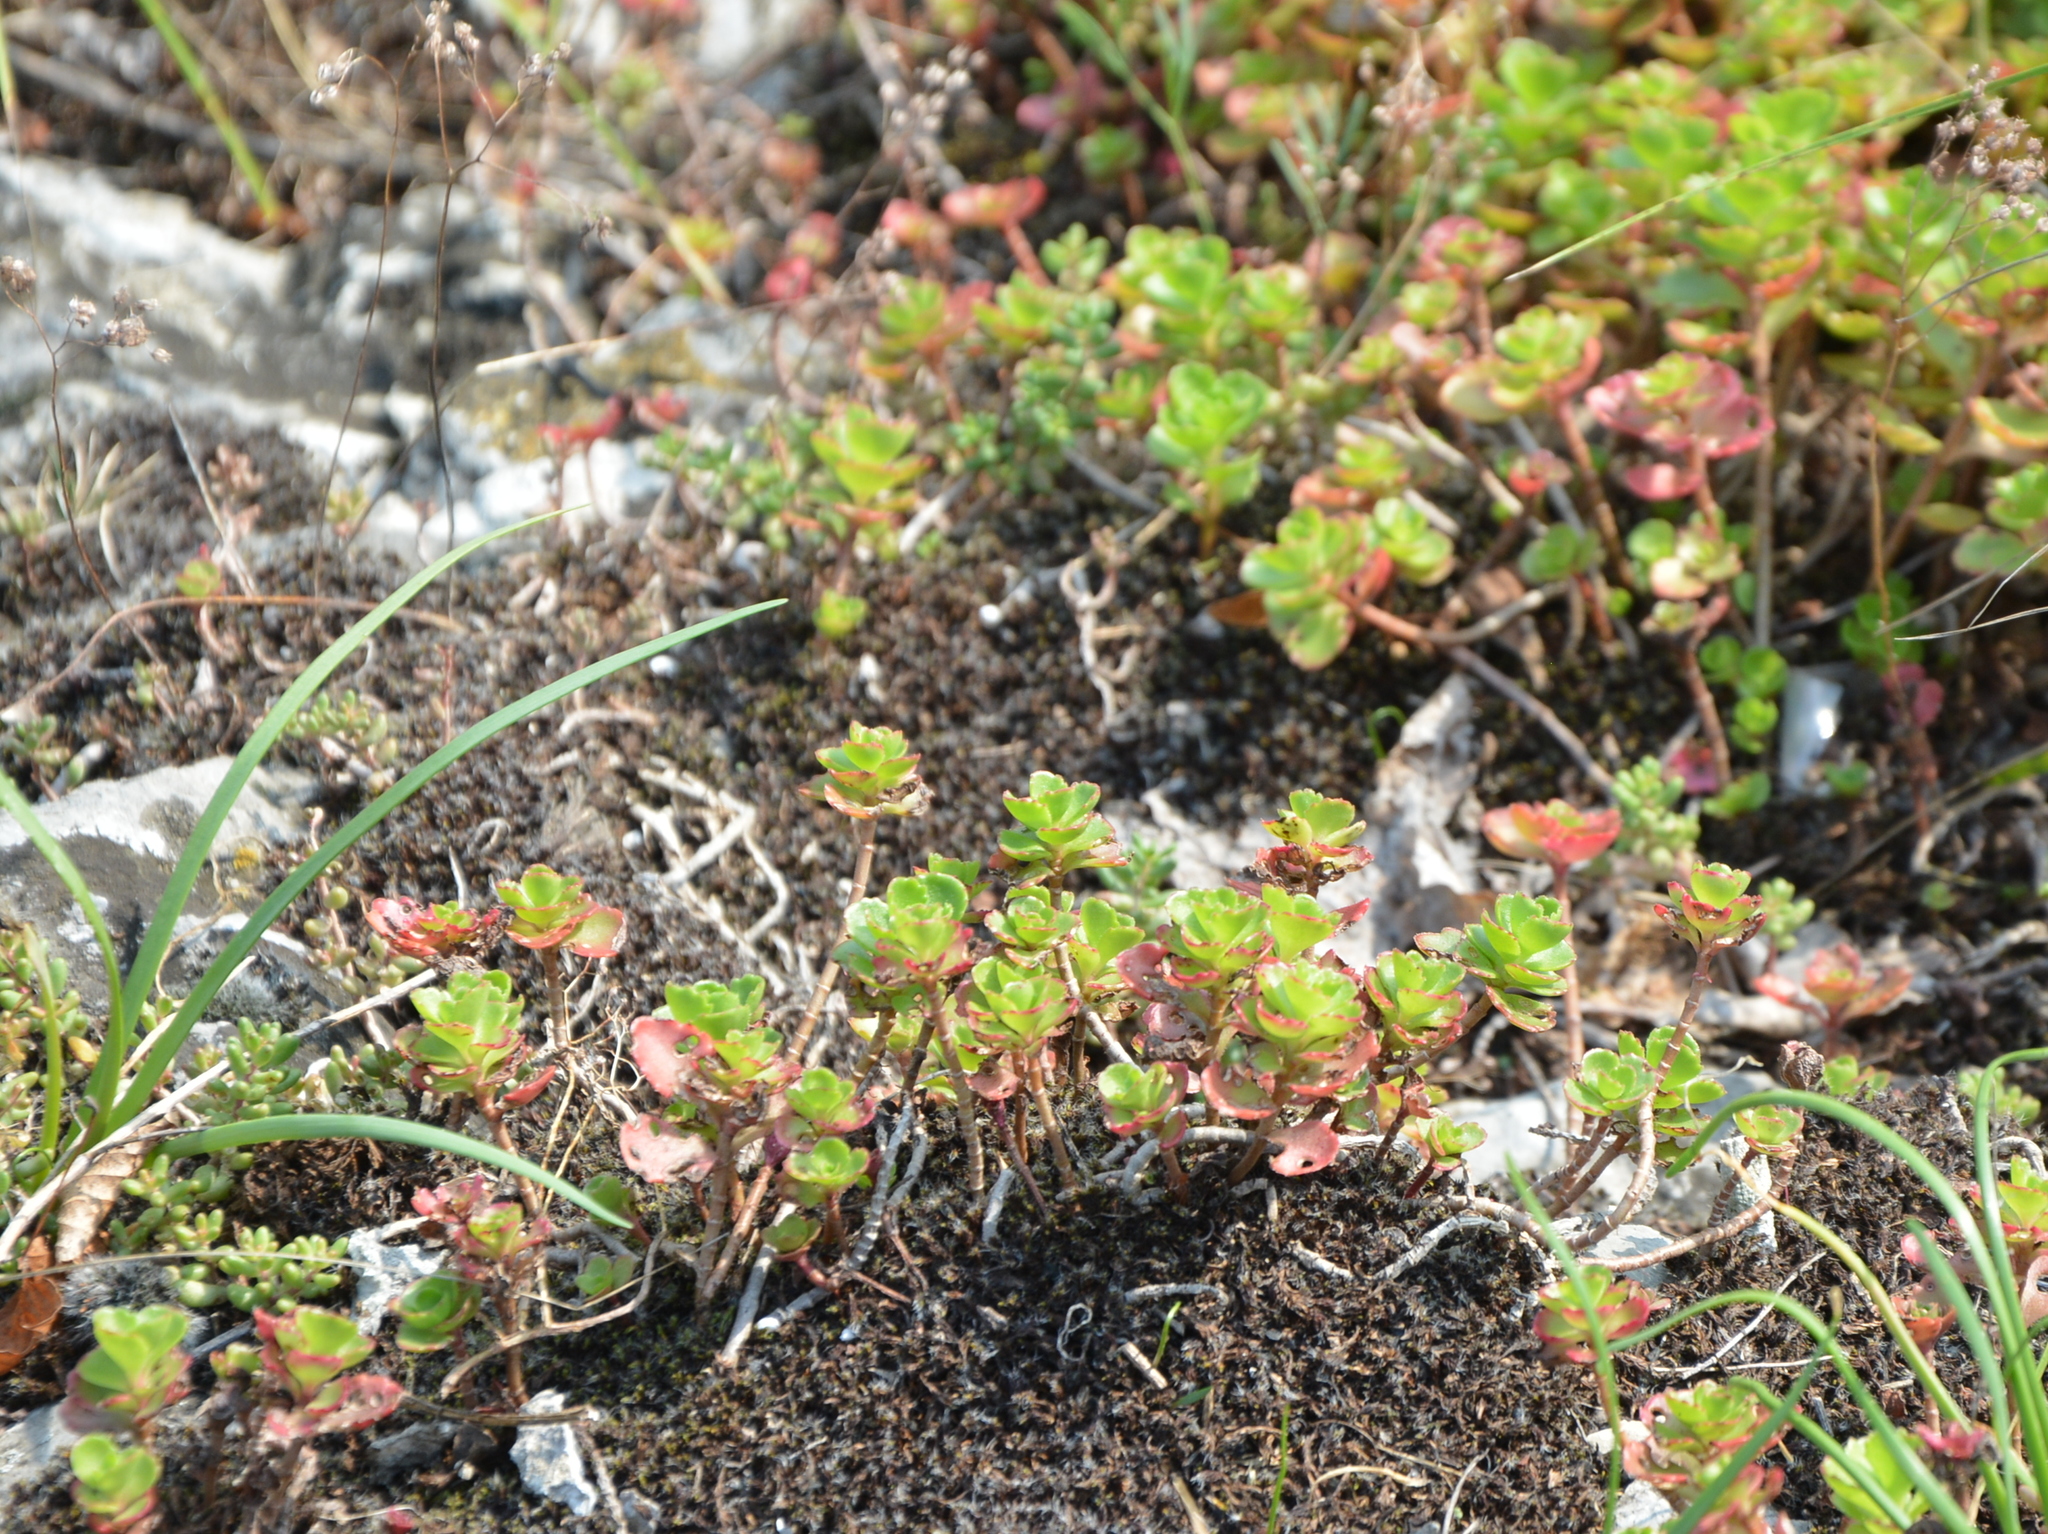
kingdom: Plantae
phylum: Tracheophyta
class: Magnoliopsida
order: Saxifragales
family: Crassulaceae
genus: Phedimus
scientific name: Phedimus spurius
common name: Caucasian stonecrop
